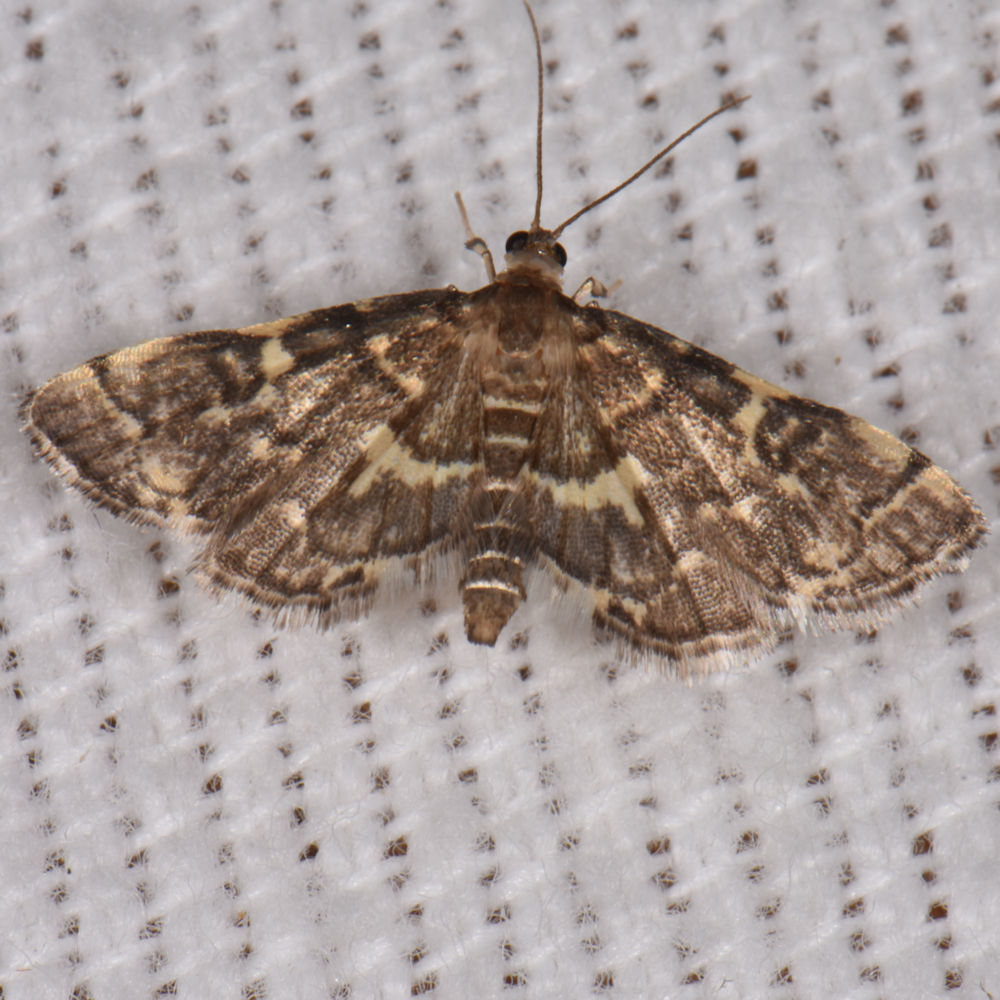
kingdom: Animalia
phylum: Arthropoda
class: Insecta
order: Lepidoptera
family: Crambidae
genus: Anageshna
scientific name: Anageshna primordialis
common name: Yellow-spotted webworm moth
